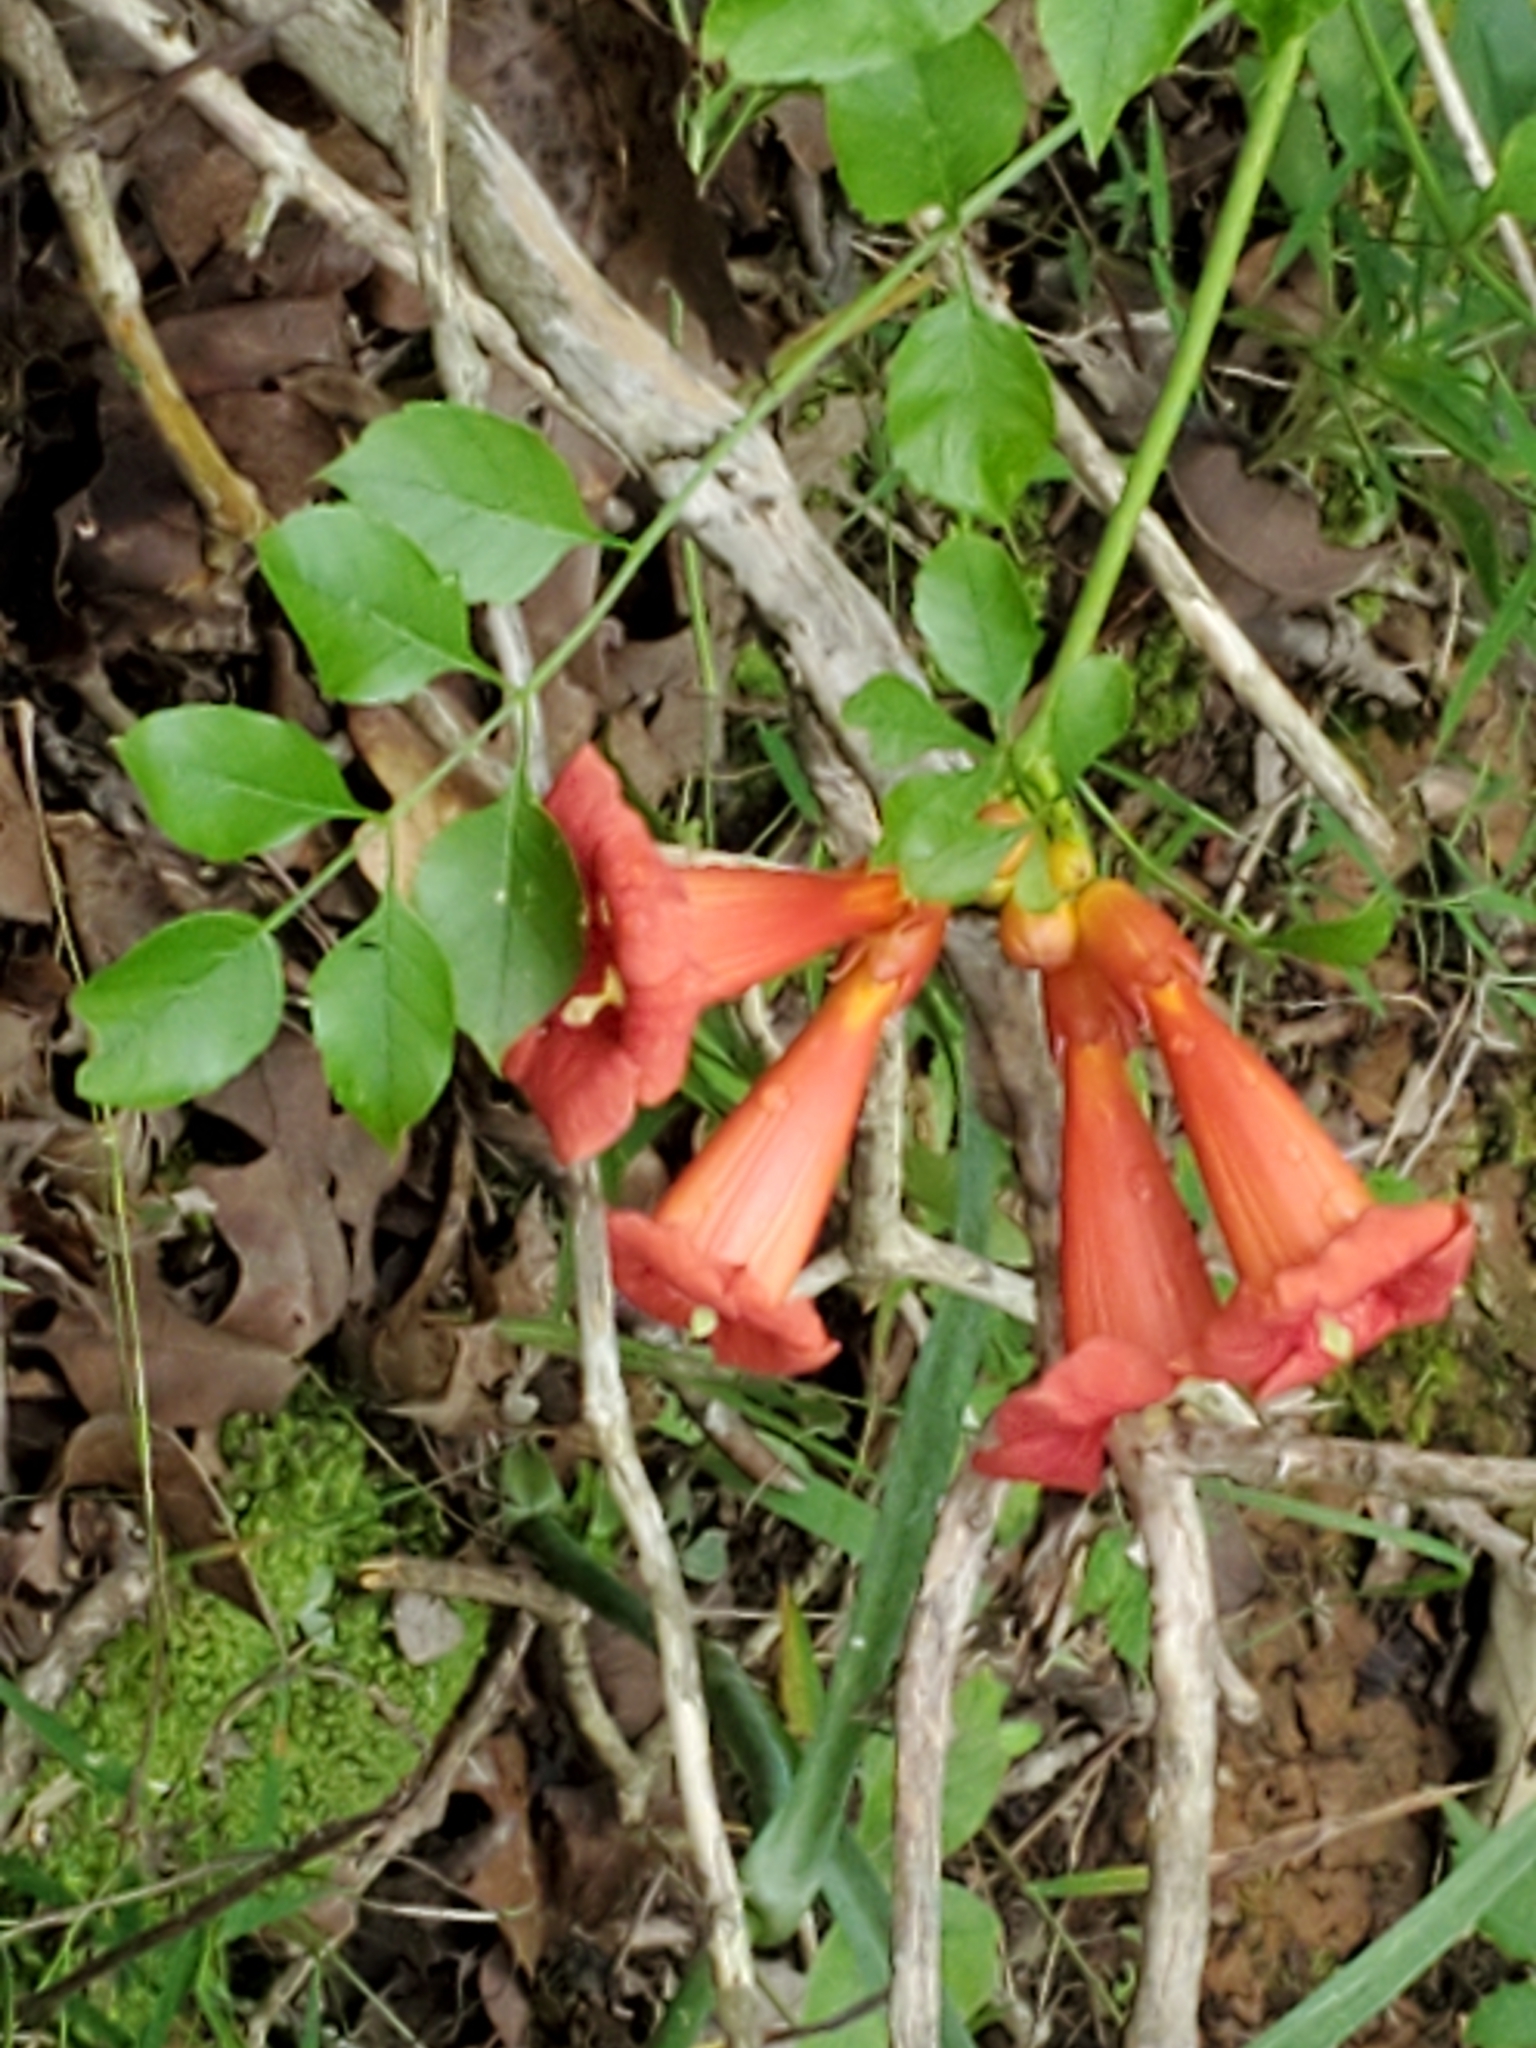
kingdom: Plantae
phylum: Tracheophyta
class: Magnoliopsida
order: Lamiales
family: Bignoniaceae
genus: Campsis
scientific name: Campsis radicans
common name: Trumpet-creeper
